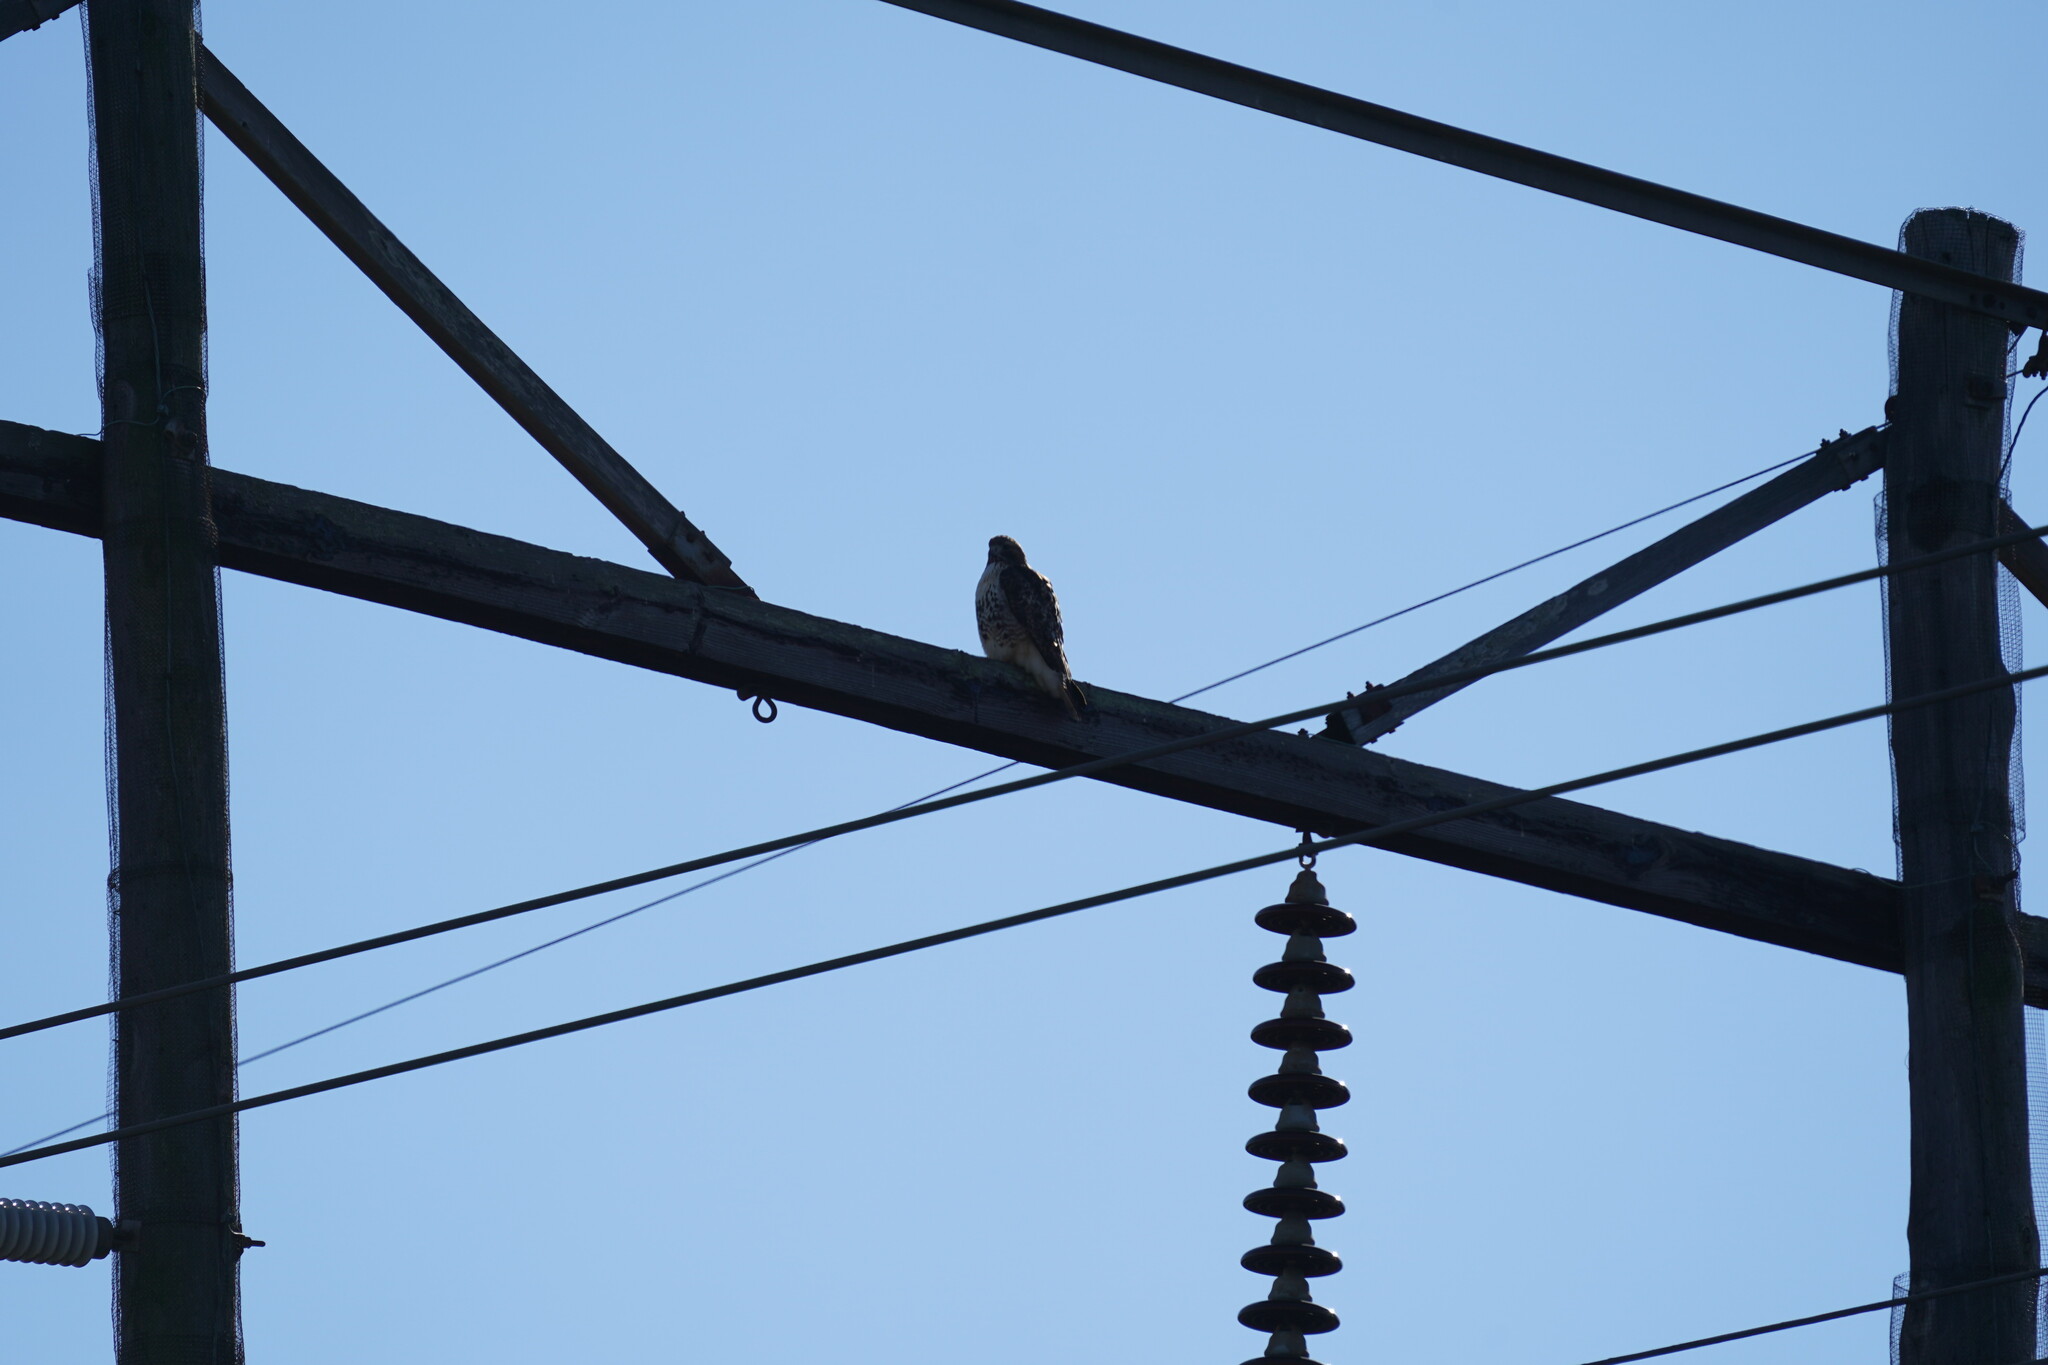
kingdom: Animalia
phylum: Chordata
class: Aves
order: Accipitriformes
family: Accipitridae
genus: Buteo
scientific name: Buteo jamaicensis
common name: Red-tailed hawk
